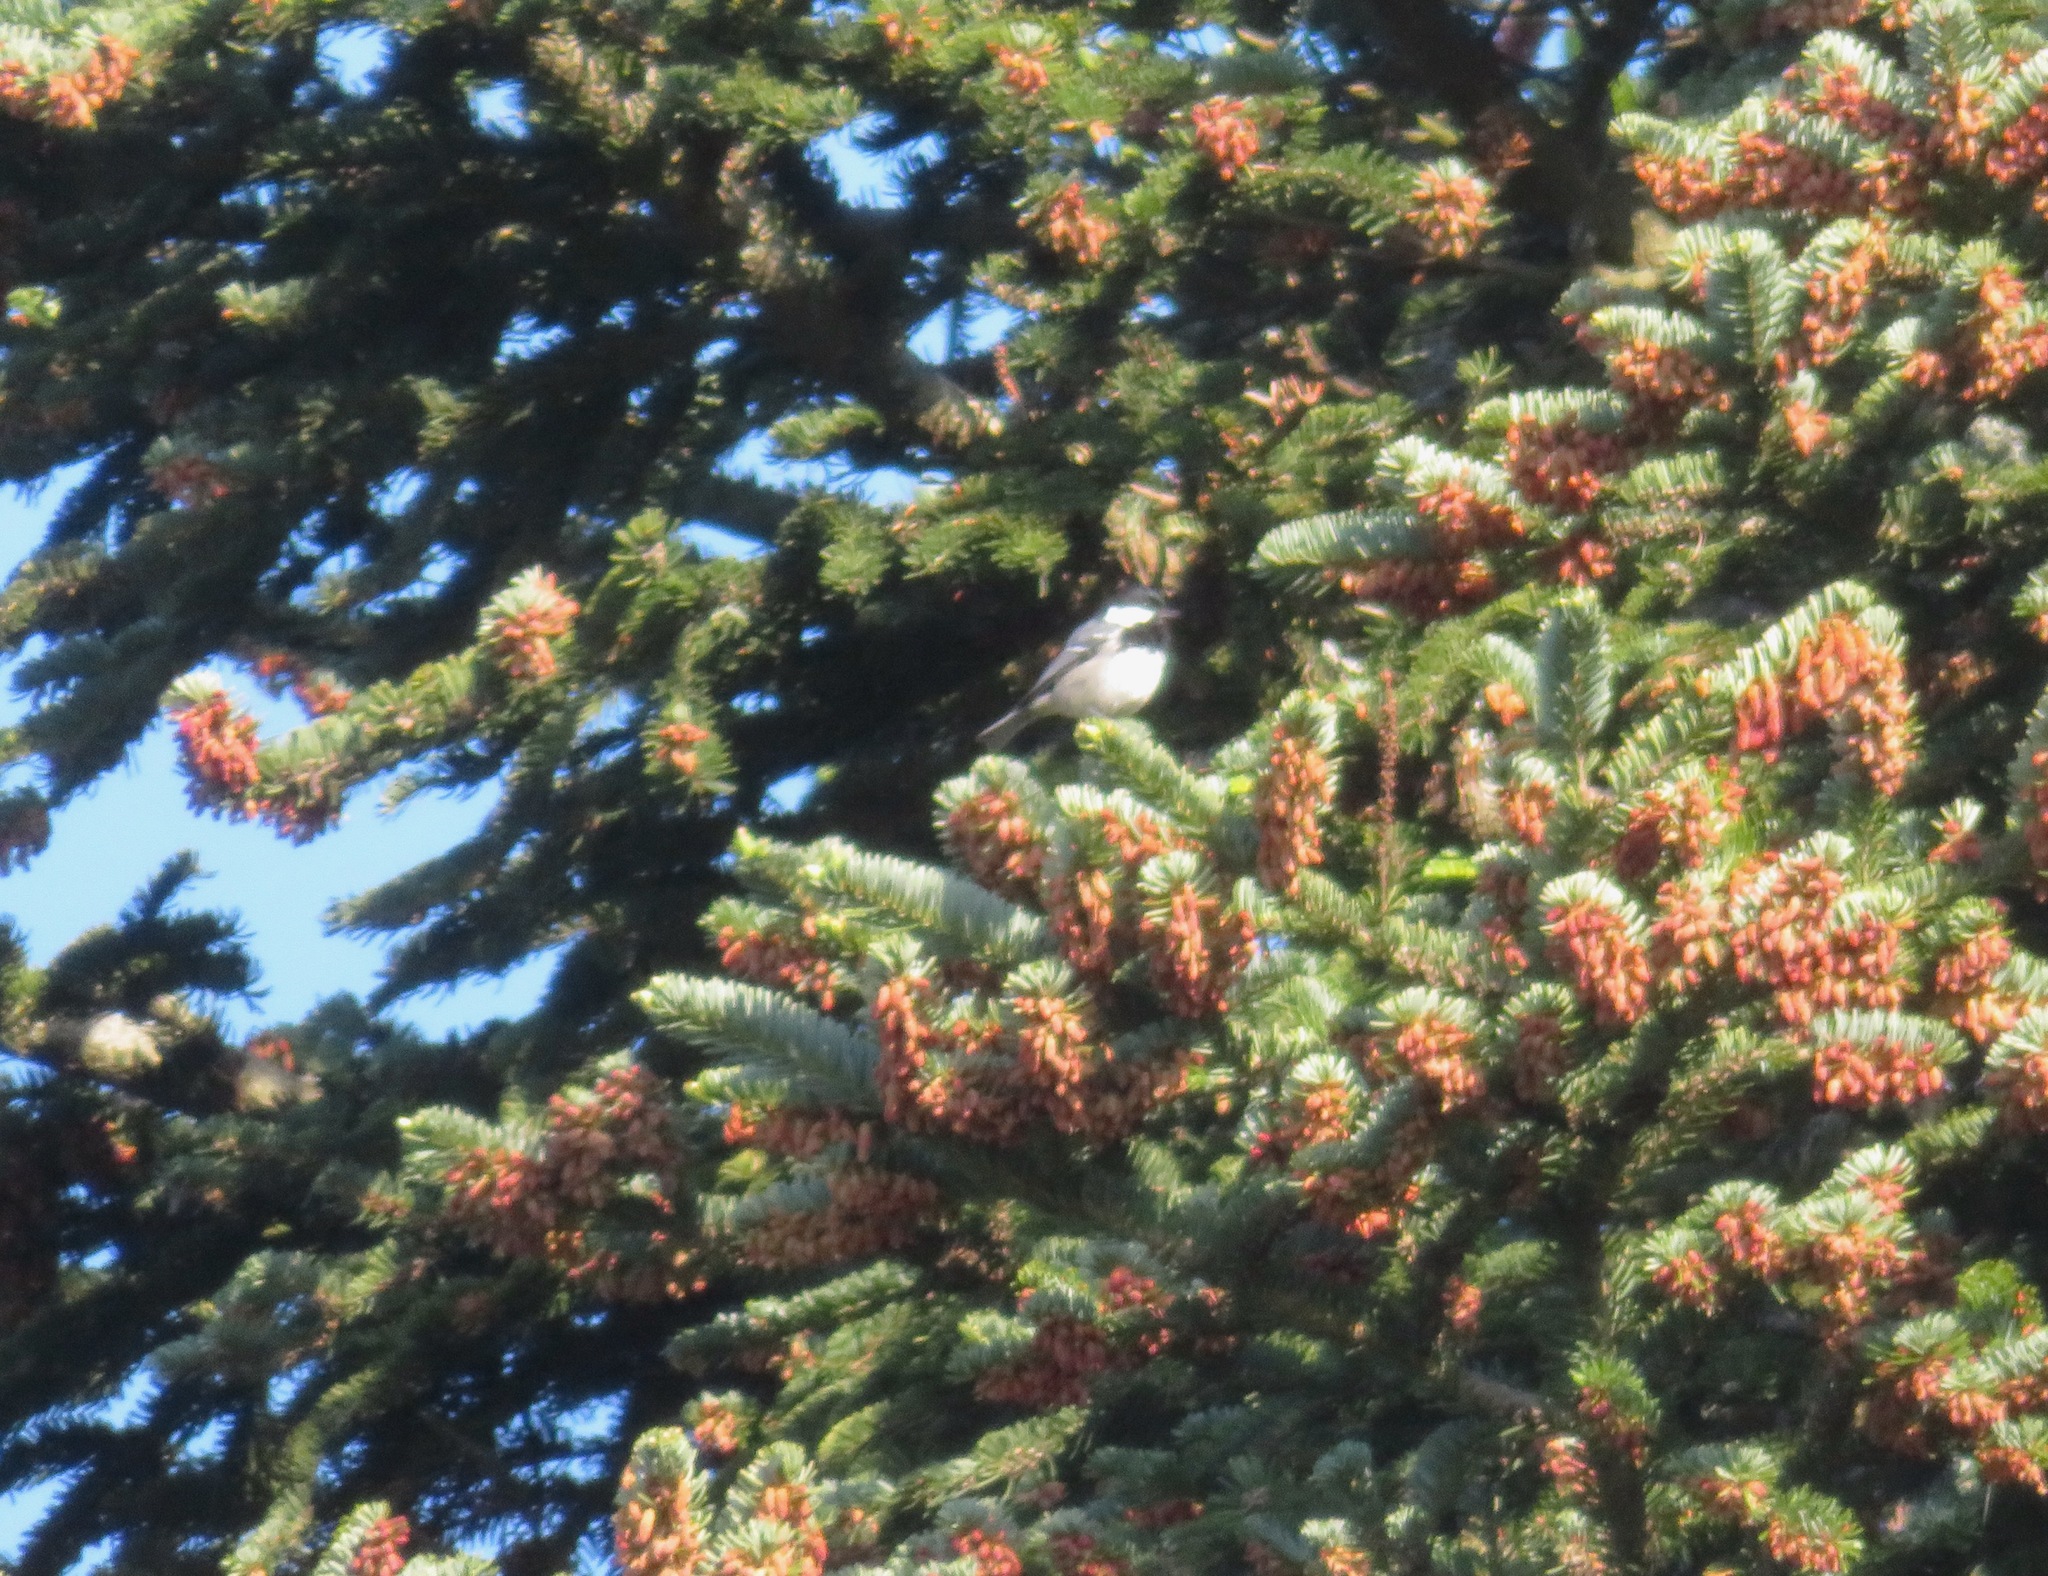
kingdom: Animalia
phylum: Chordata
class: Aves
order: Passeriformes
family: Paridae
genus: Periparus
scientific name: Periparus ater
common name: Coal tit
